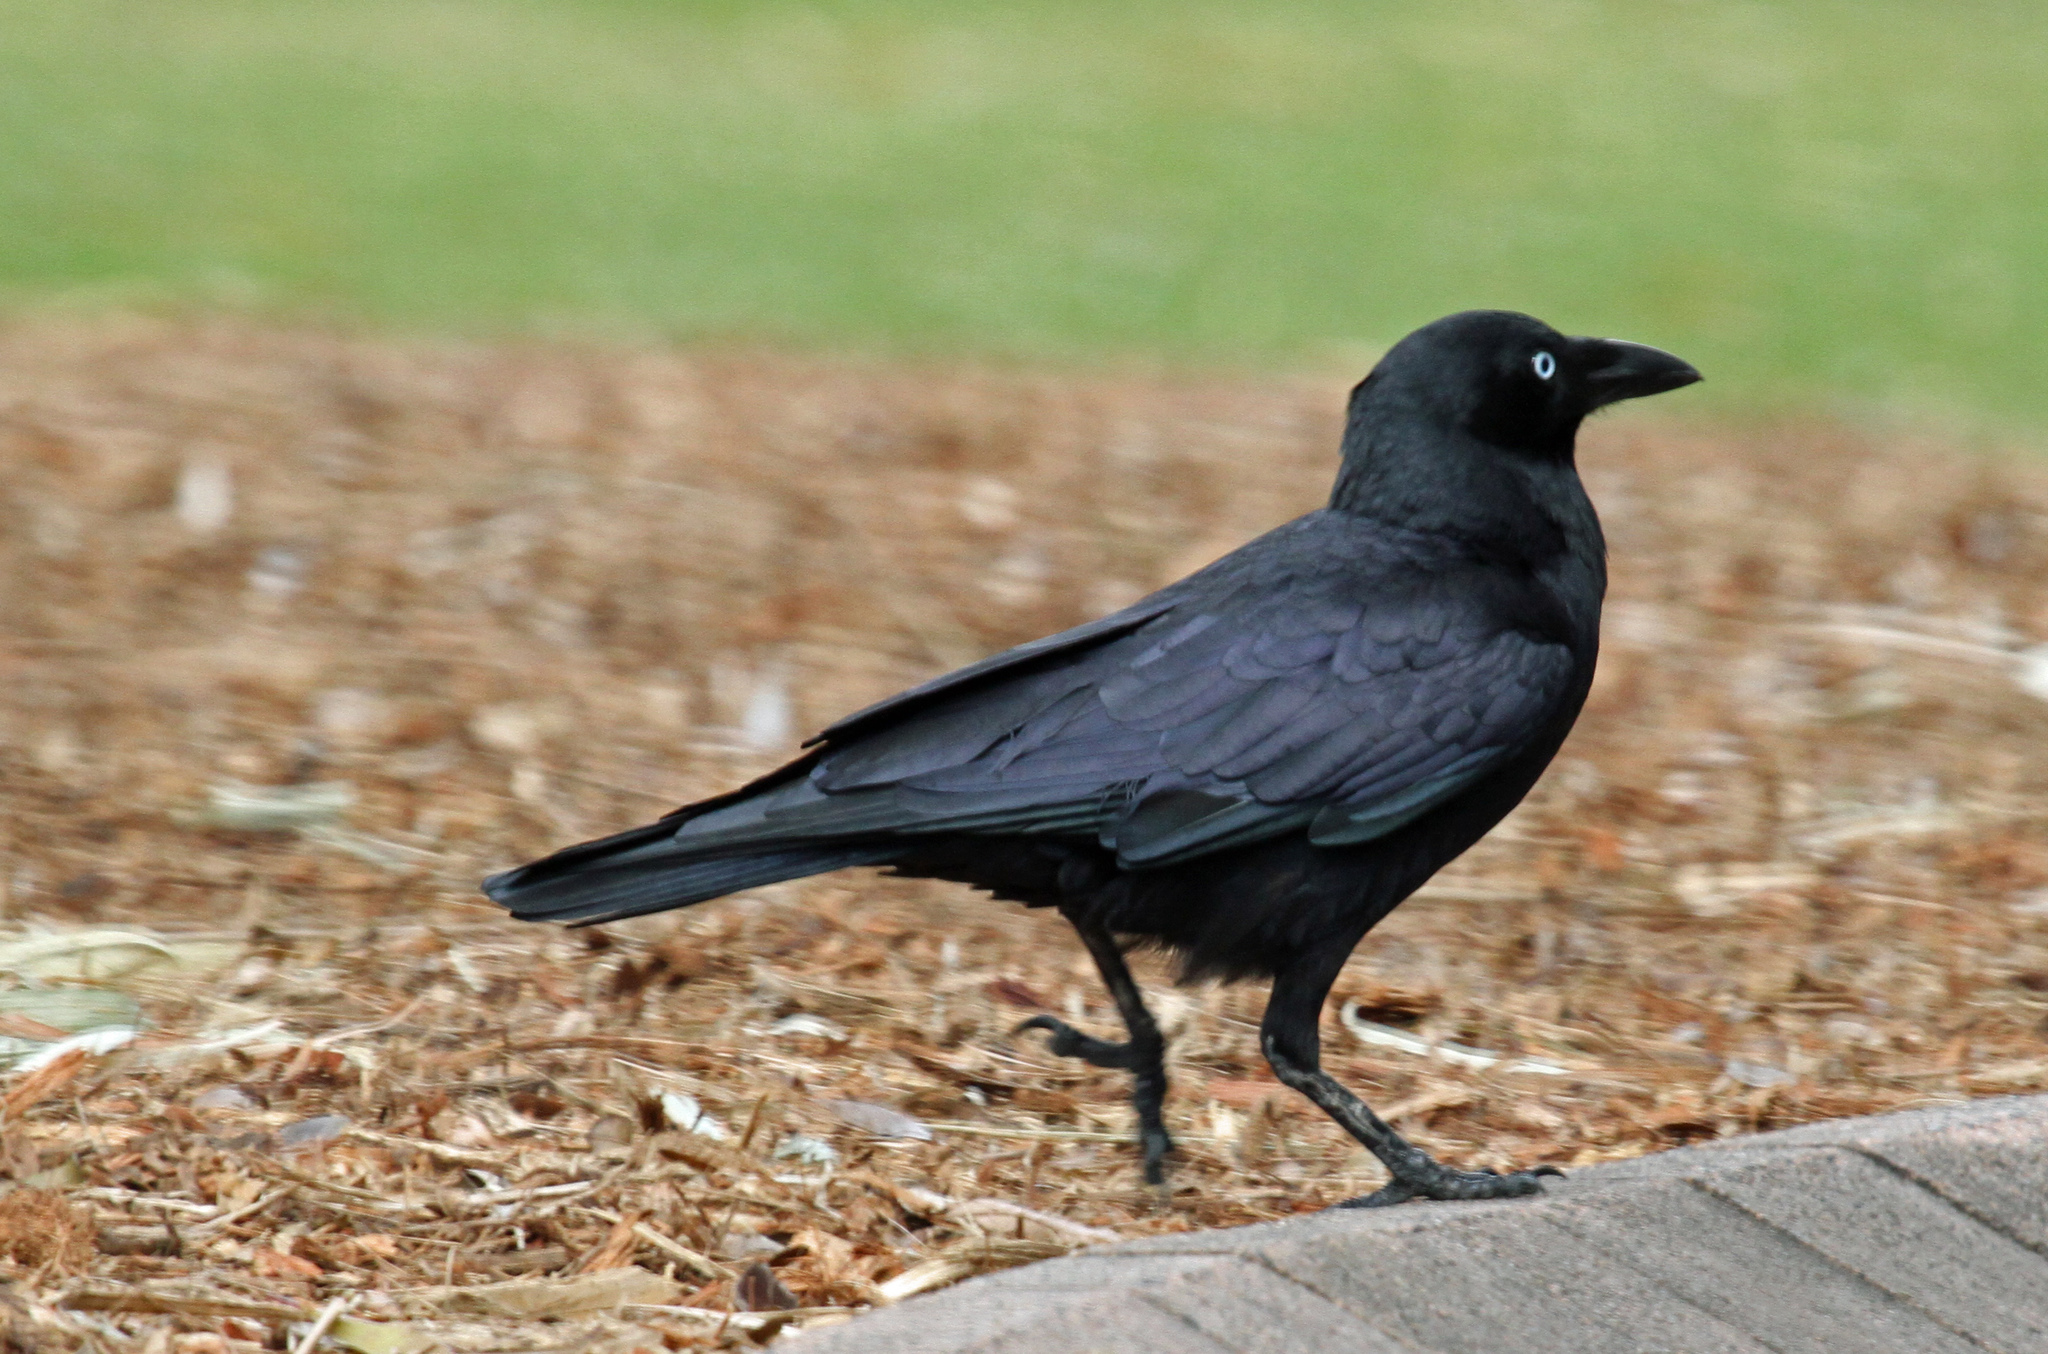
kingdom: Animalia
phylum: Chordata
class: Aves
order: Passeriformes
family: Corvidae
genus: Corvus
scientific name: Corvus orru
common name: Torresian crow
